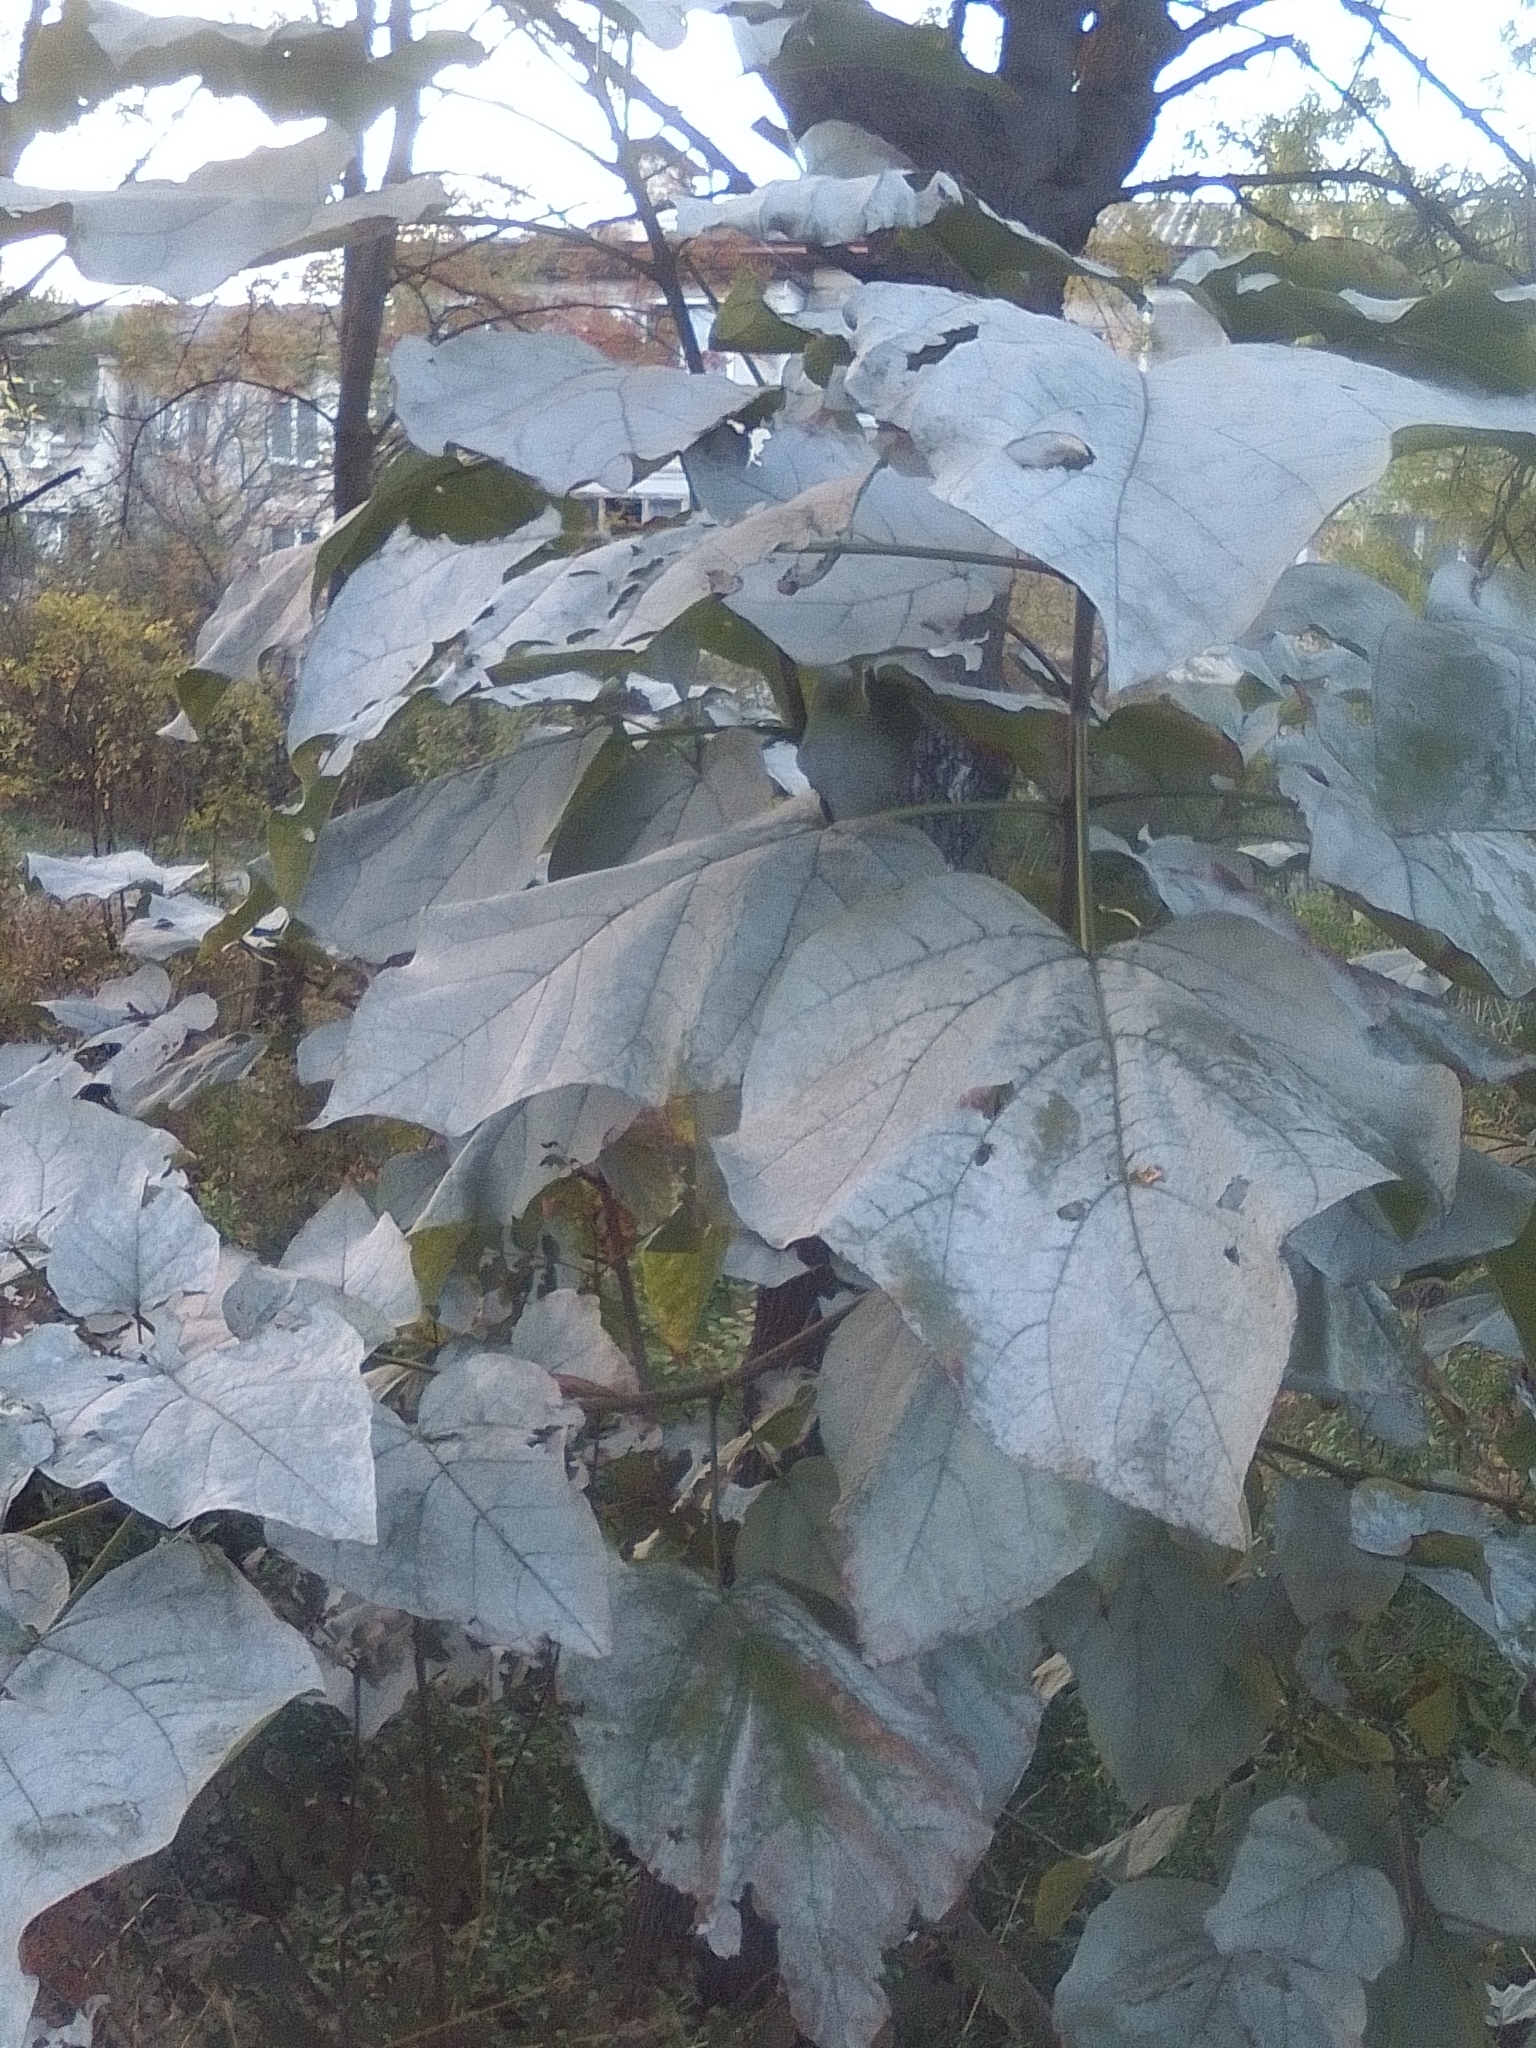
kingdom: Plantae
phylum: Tracheophyta
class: Magnoliopsida
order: Lamiales
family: Paulowniaceae
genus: Paulownia
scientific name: Paulownia tomentosa
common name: Foxglove-tree
